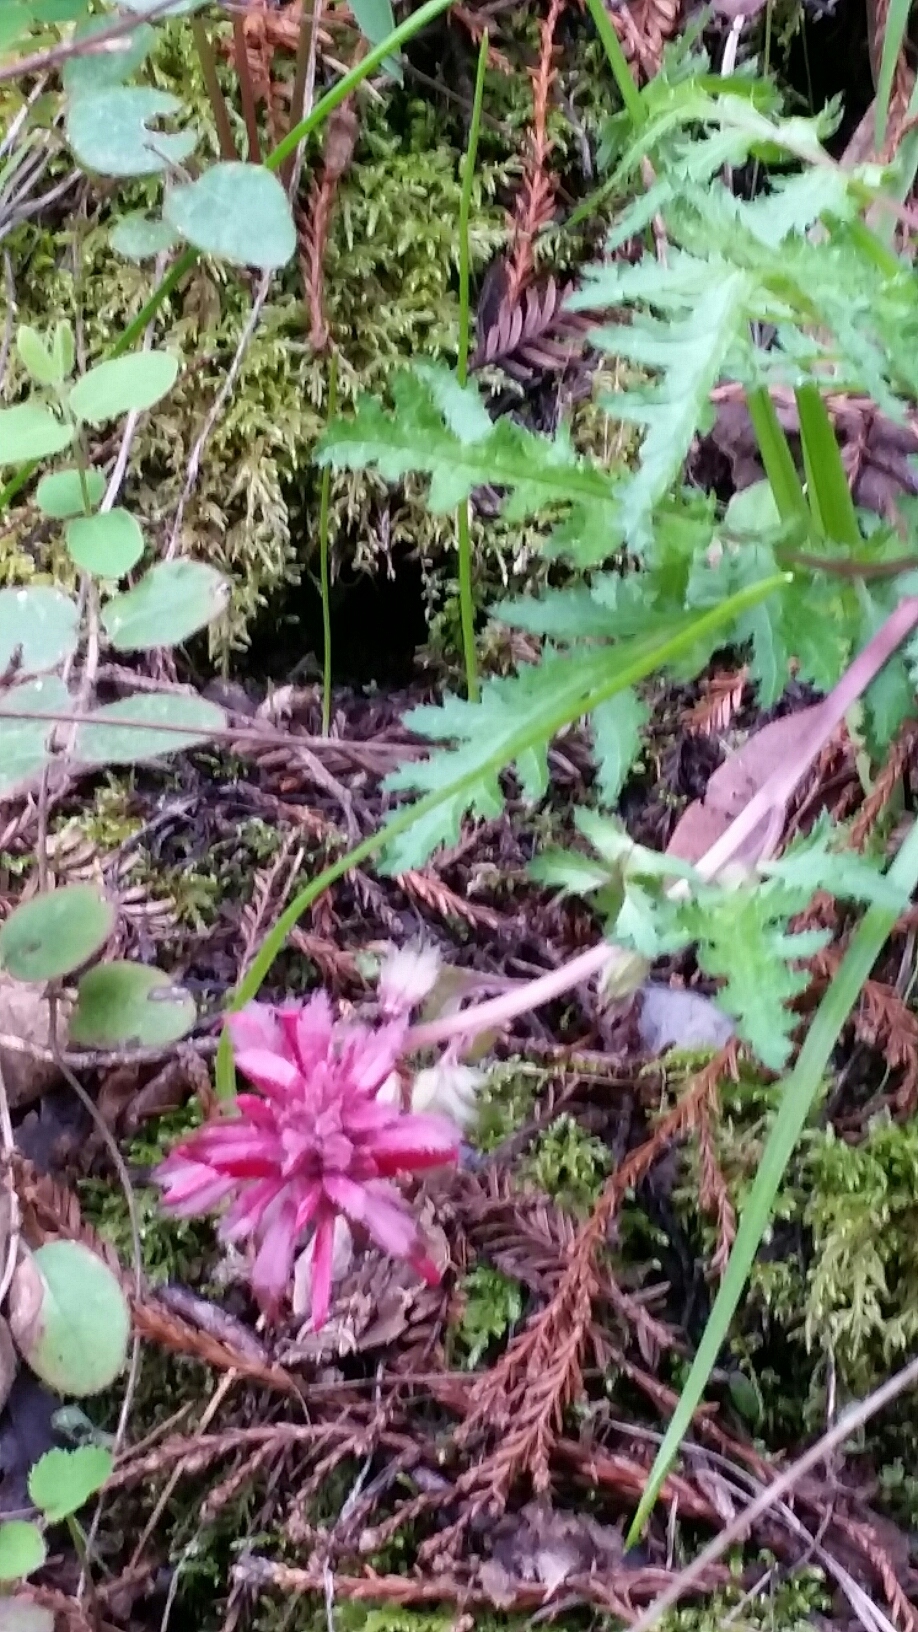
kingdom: Plantae
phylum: Tracheophyta
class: Magnoliopsida
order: Lamiales
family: Orobanchaceae
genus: Pedicularis
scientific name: Pedicularis densiflora
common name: Indian warrior
